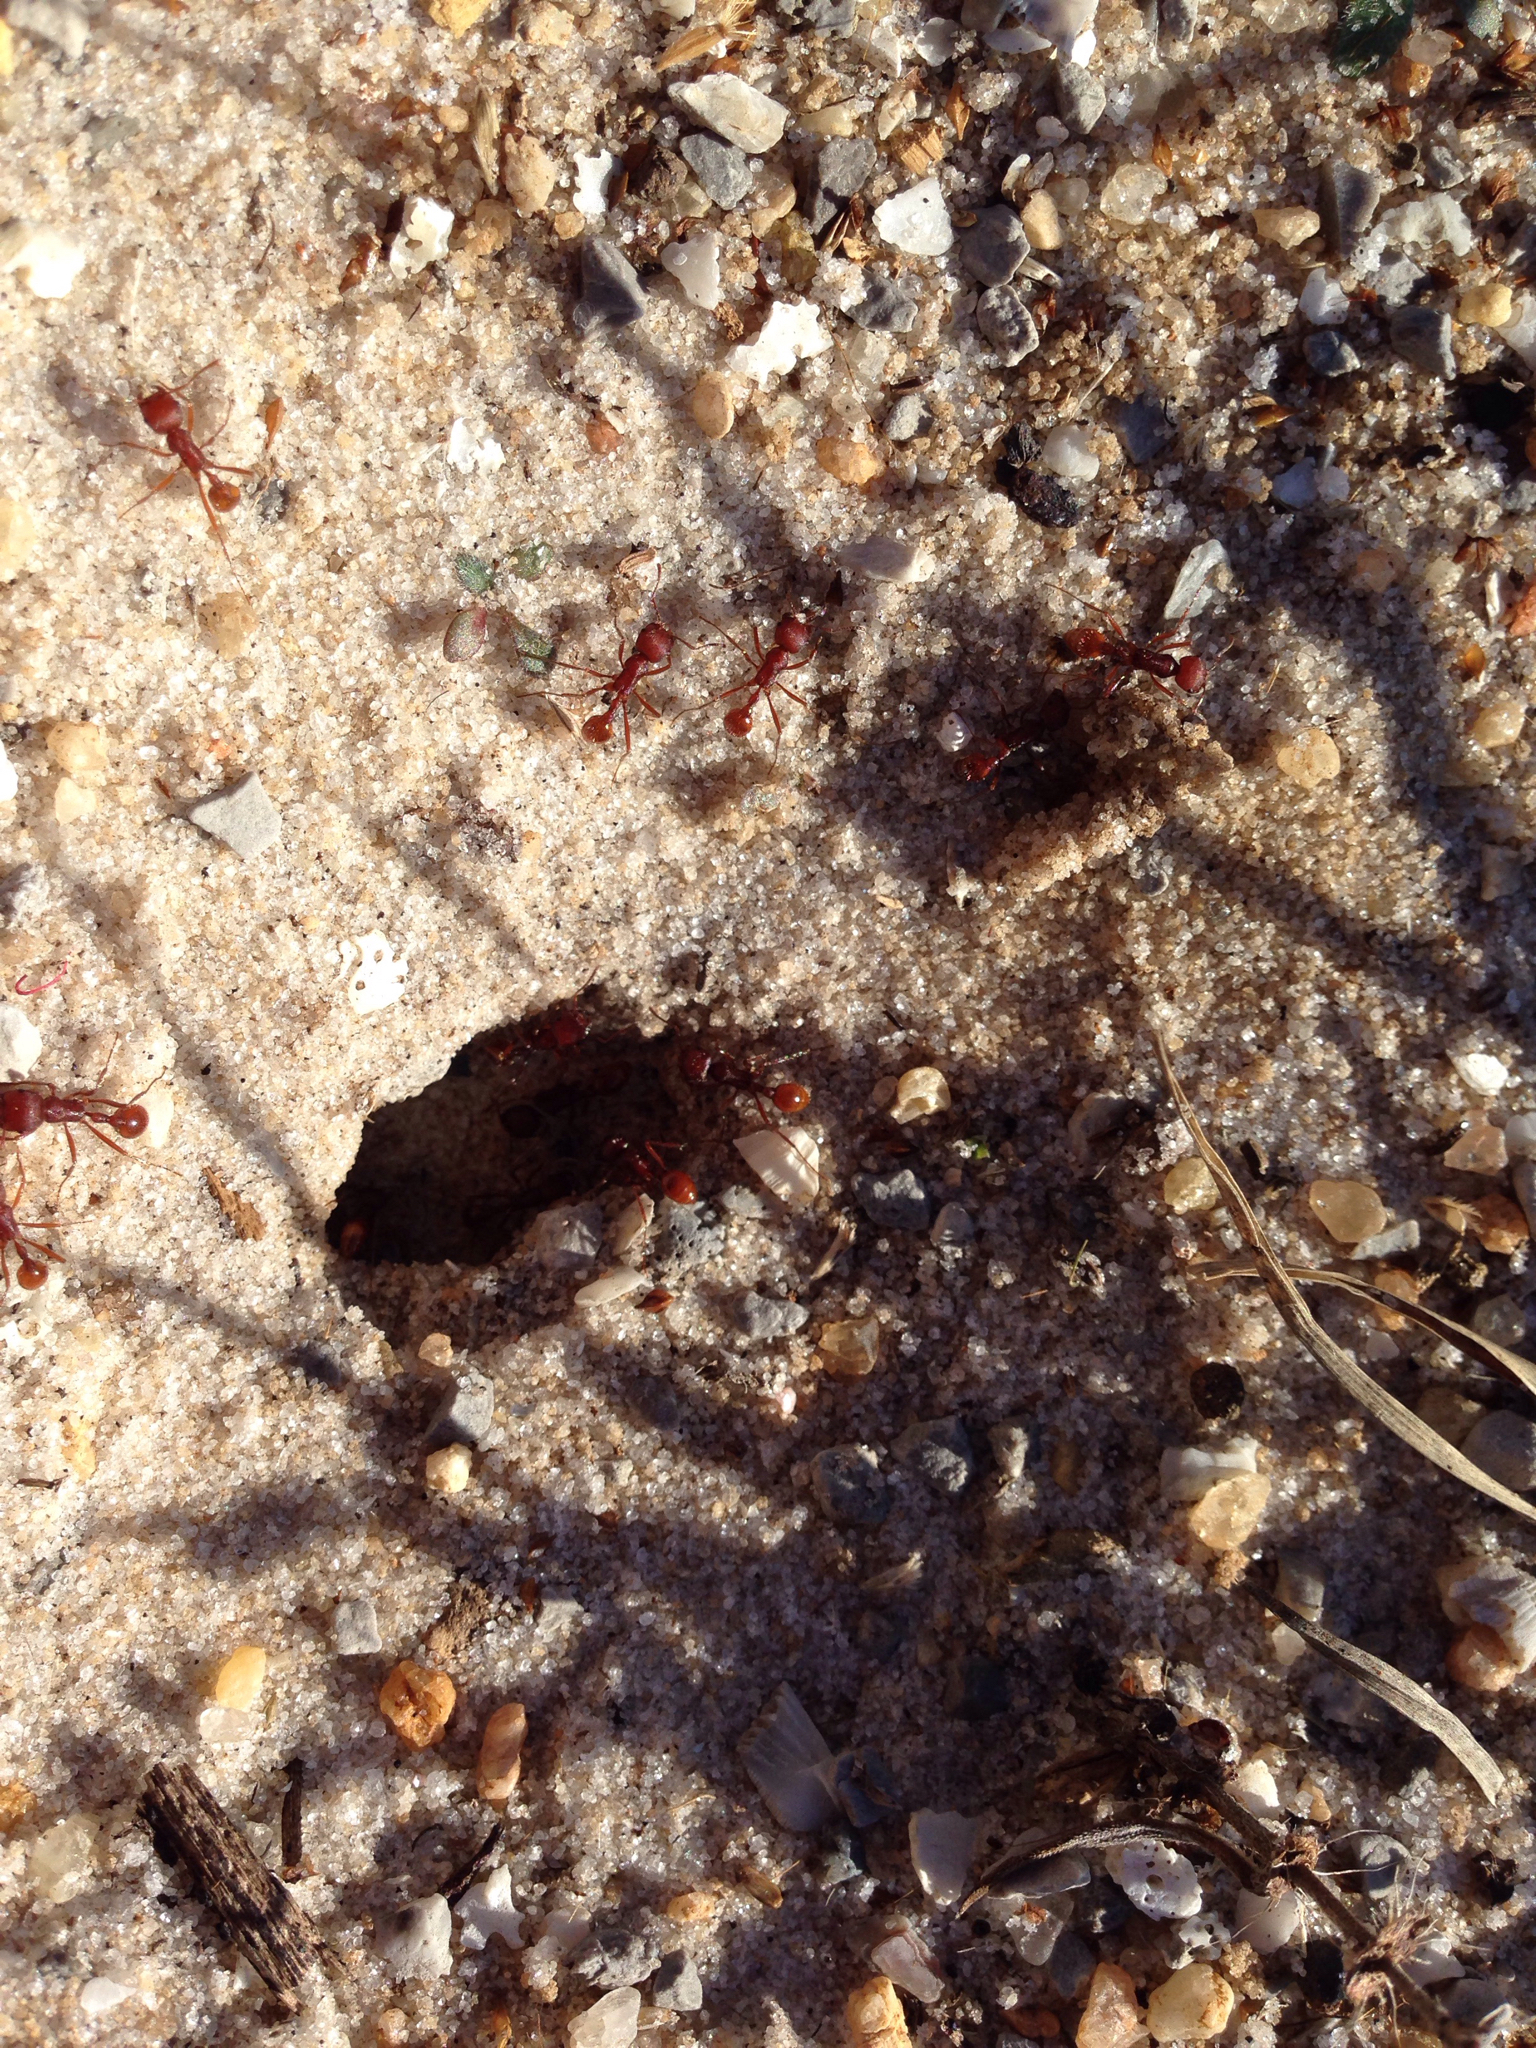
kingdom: Animalia
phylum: Arthropoda
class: Insecta
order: Hymenoptera
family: Formicidae
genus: Pogonomyrmex
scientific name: Pogonomyrmex badius
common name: Florida harvester ant
